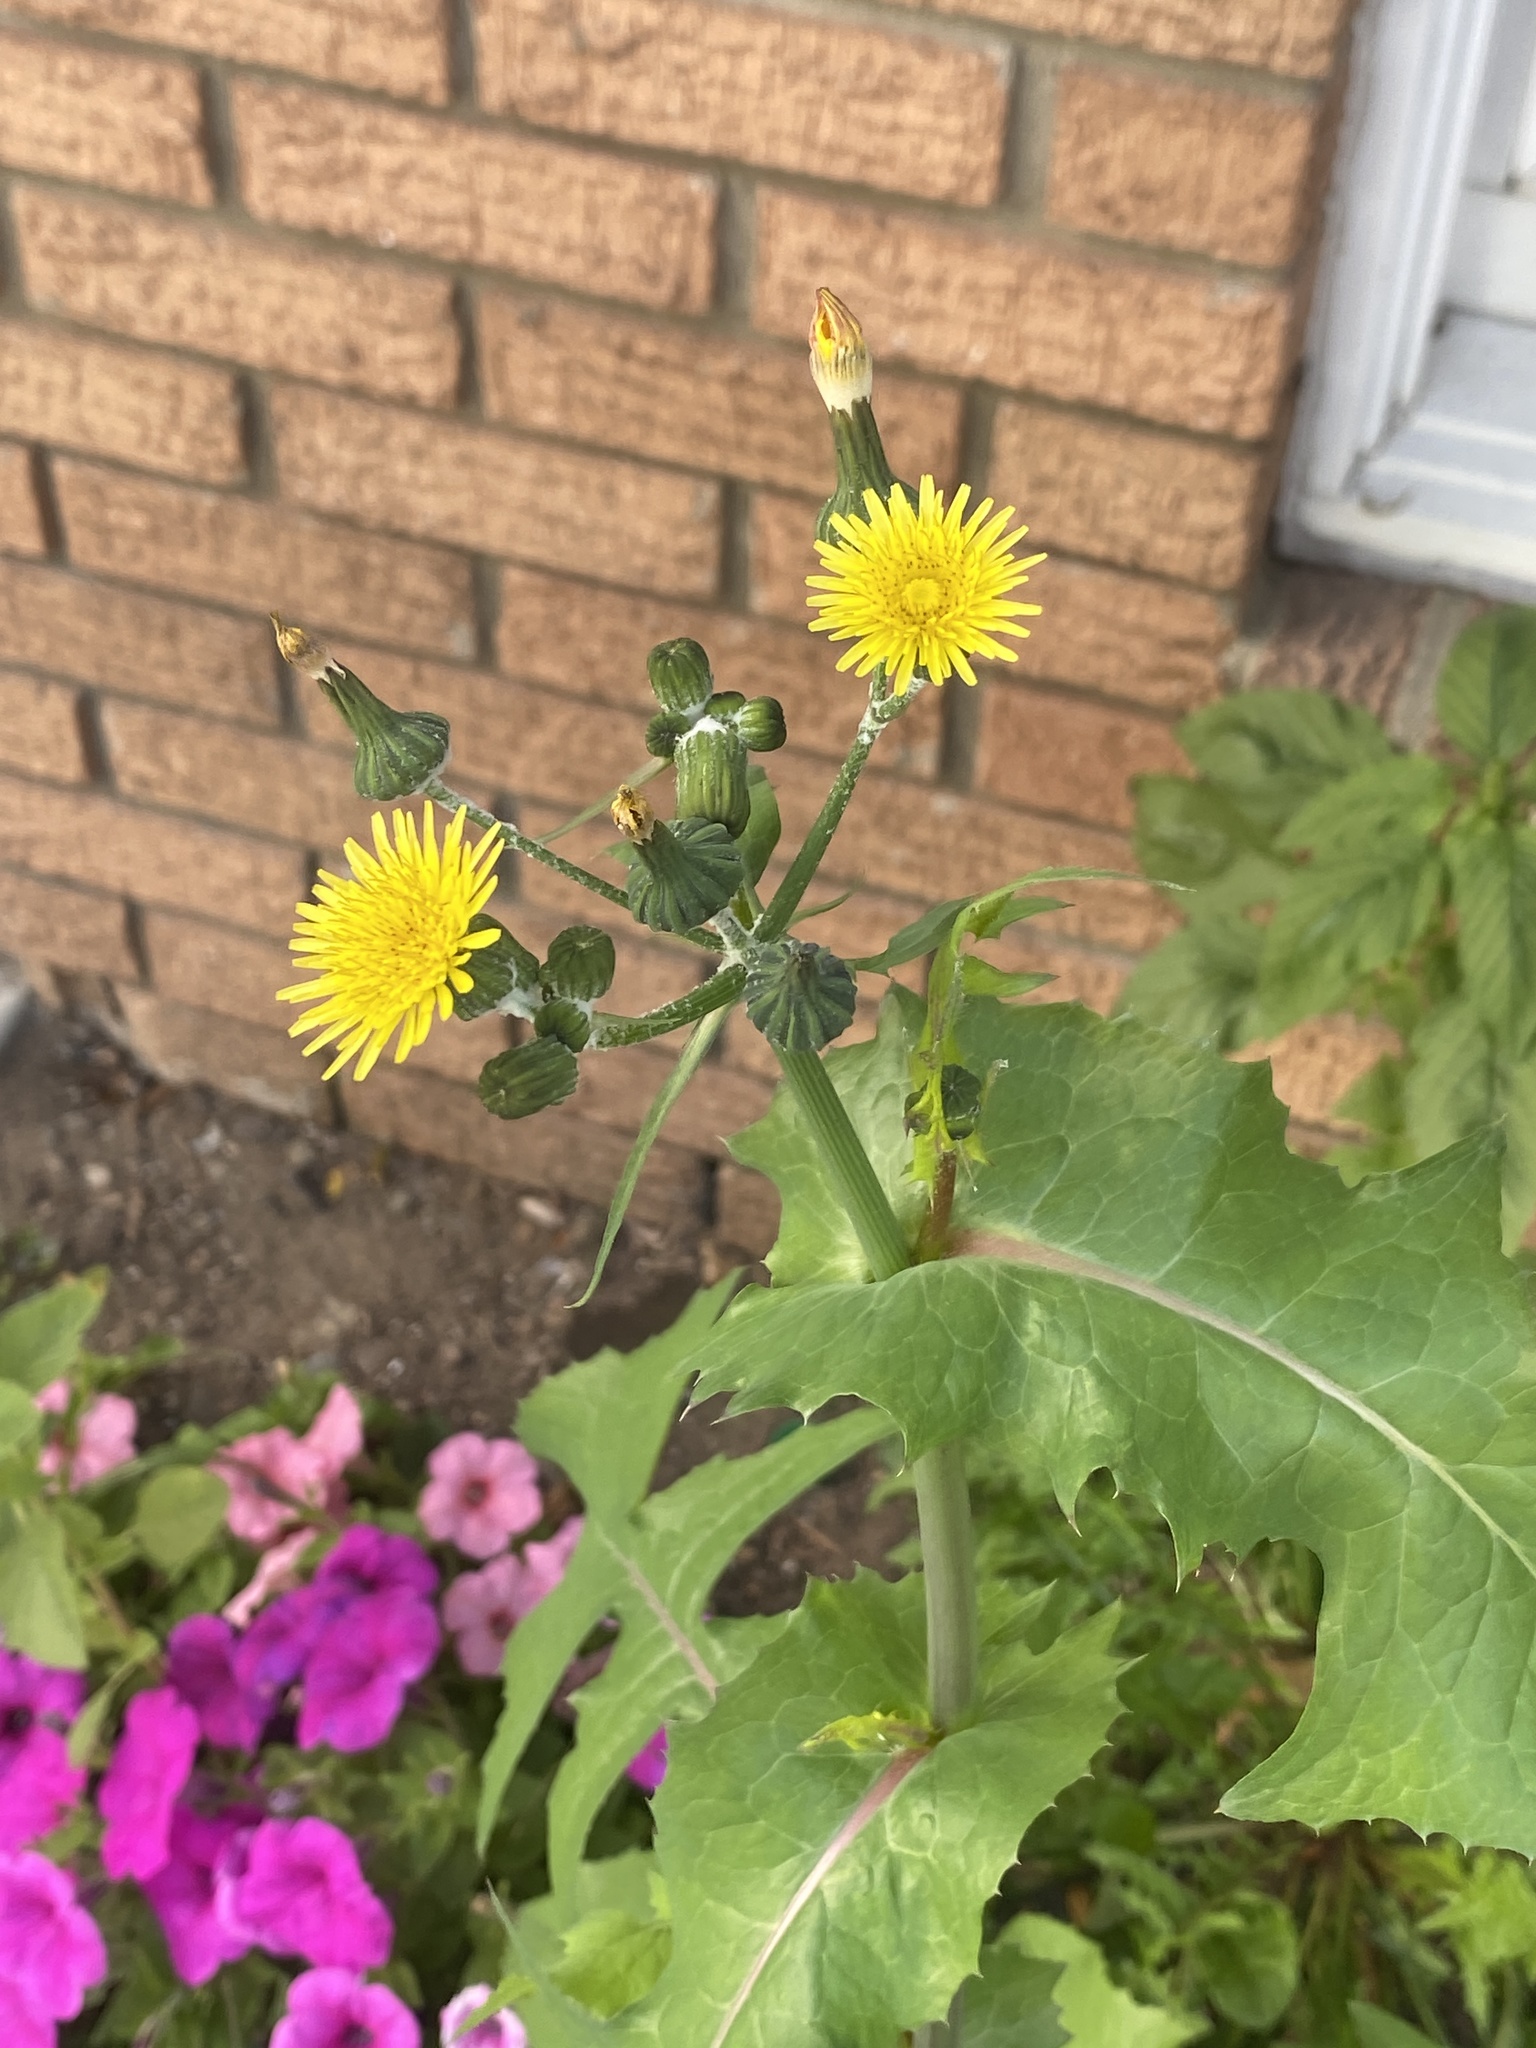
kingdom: Plantae
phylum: Tracheophyta
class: Magnoliopsida
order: Asterales
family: Asteraceae
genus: Sonchus
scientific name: Sonchus oleraceus
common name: Common sowthistle
